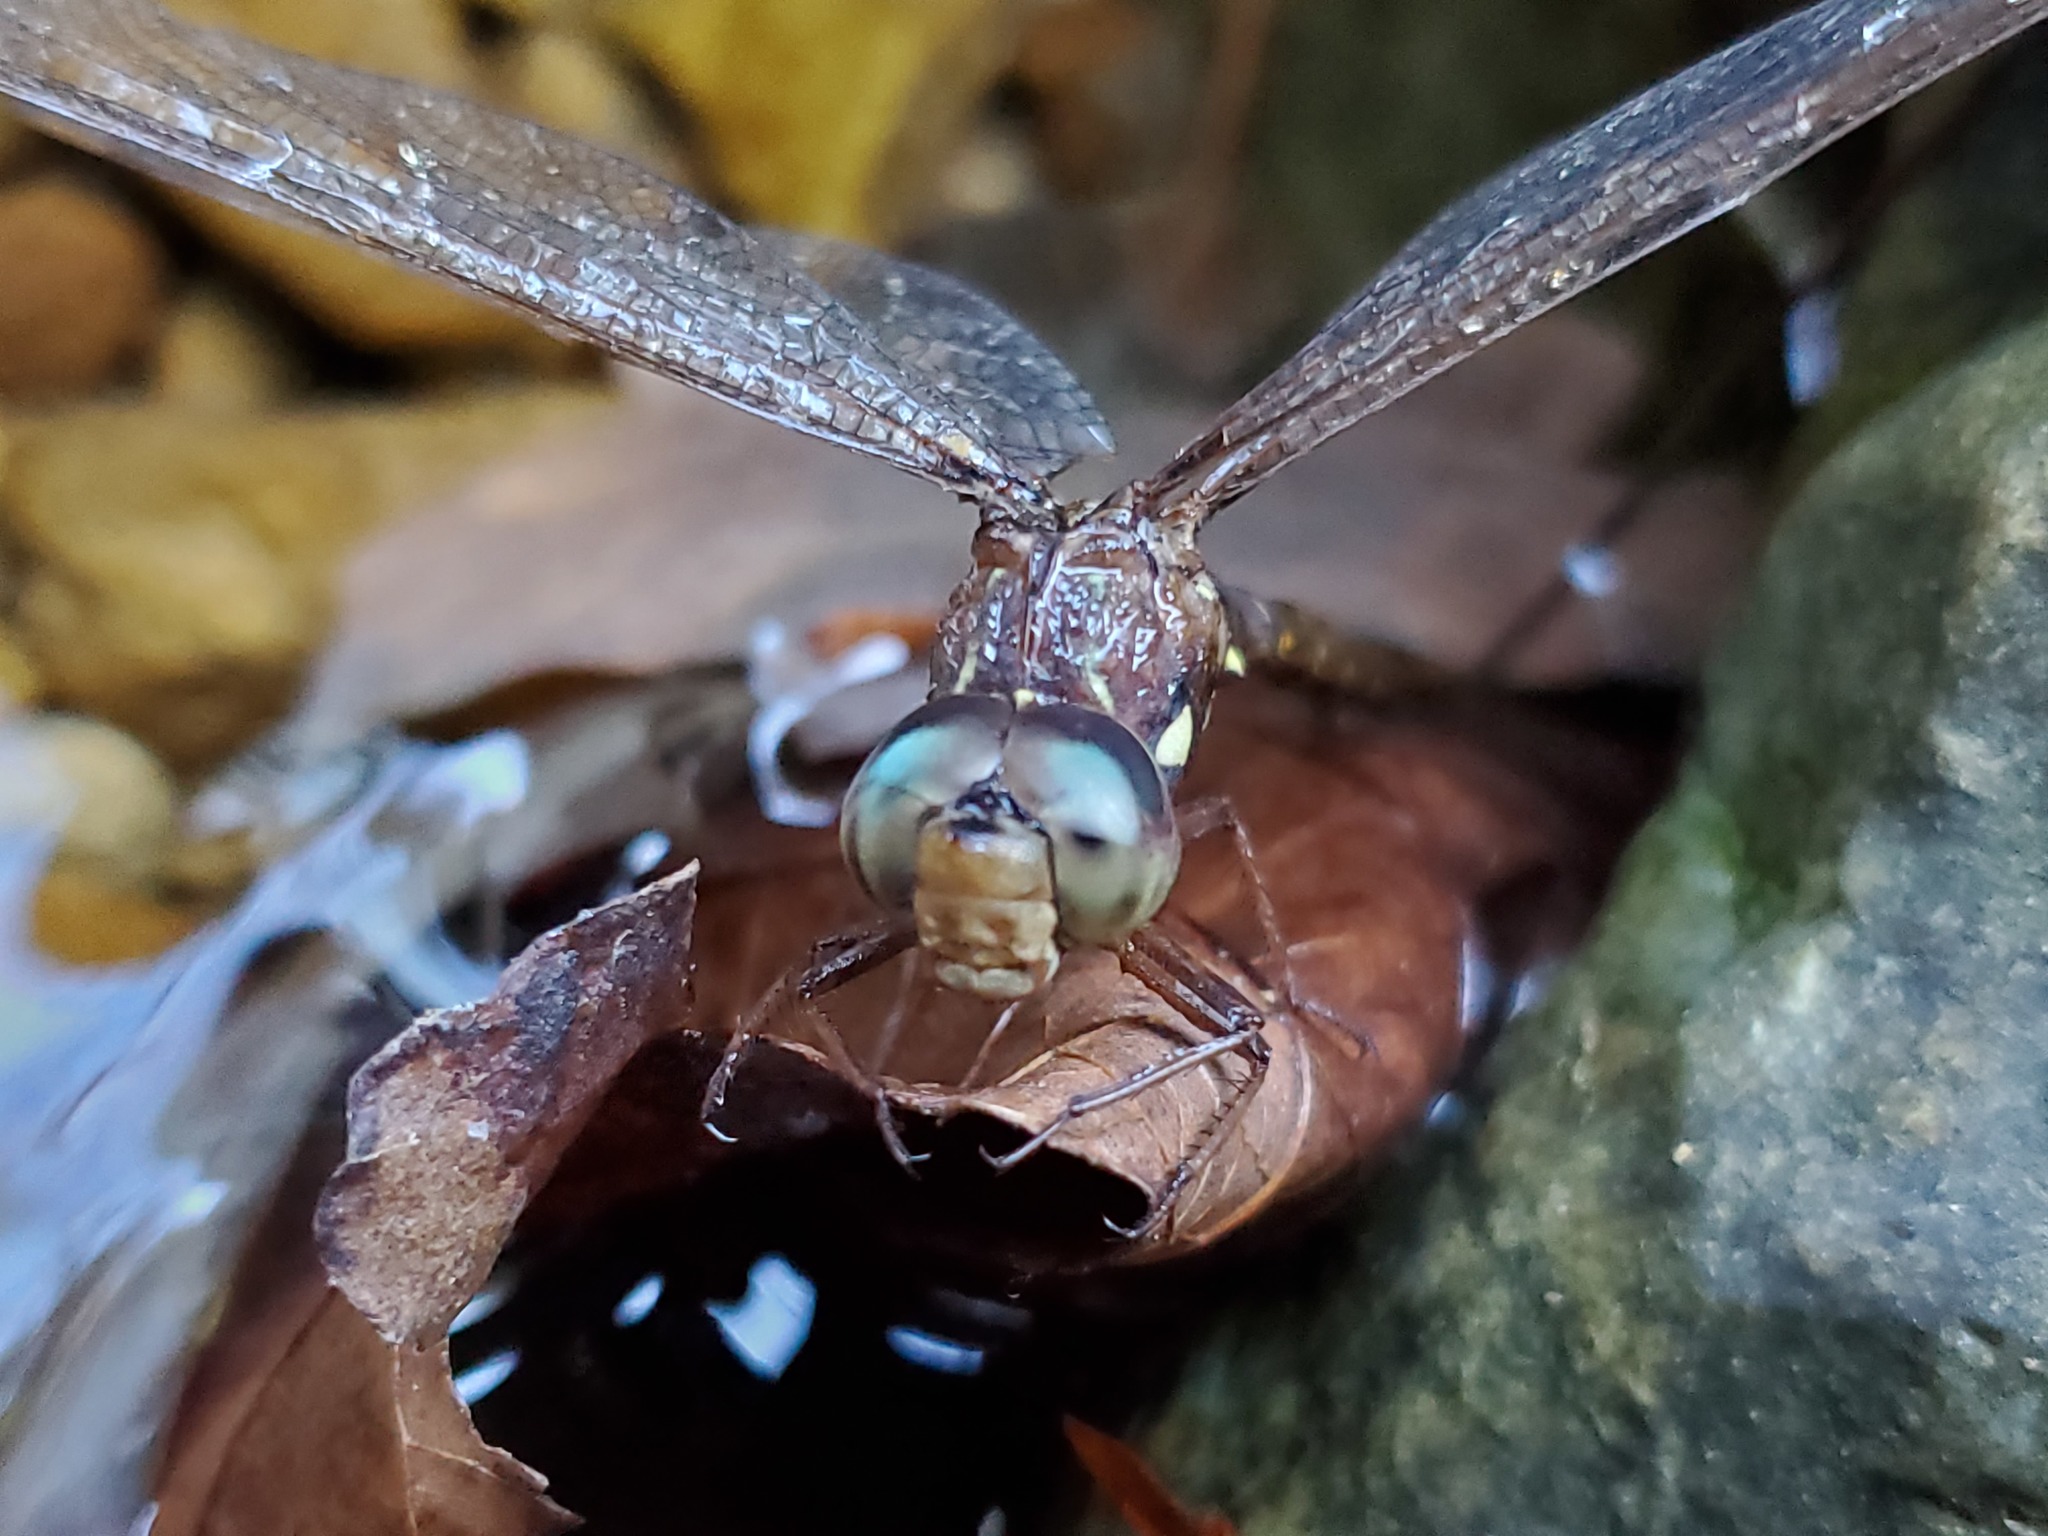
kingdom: Animalia
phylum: Arthropoda
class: Insecta
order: Odonata
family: Aeshnidae
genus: Boyeria
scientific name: Boyeria vinosa
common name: Fawn darner
